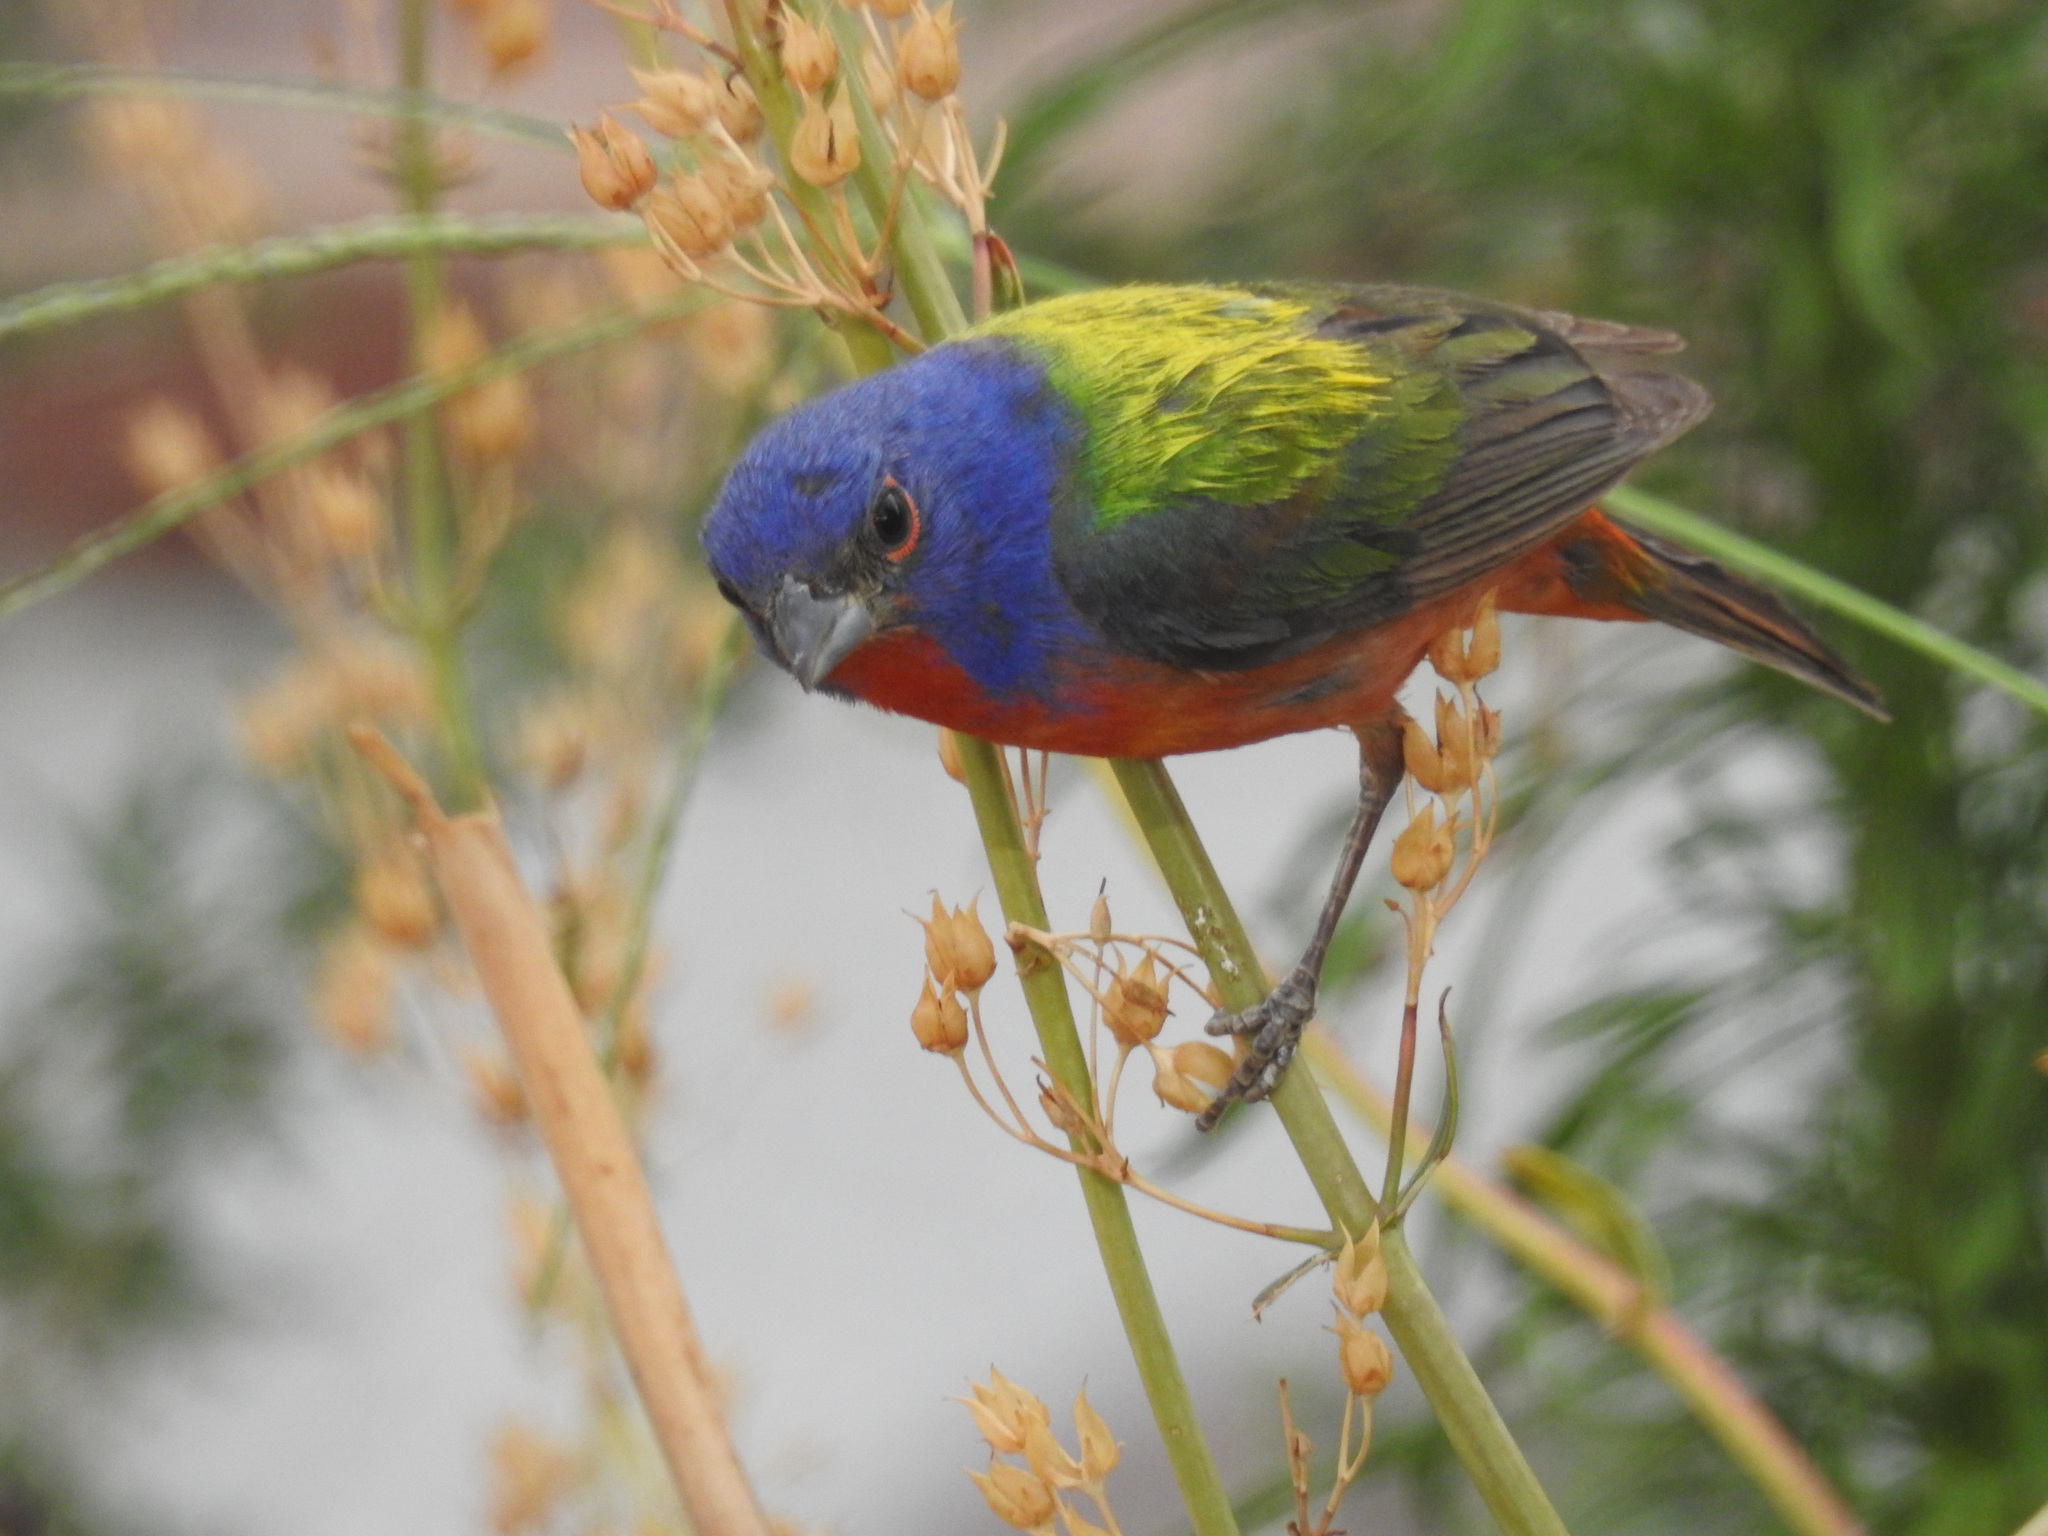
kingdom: Animalia
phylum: Chordata
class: Aves
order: Passeriformes
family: Cardinalidae
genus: Passerina
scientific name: Passerina ciris
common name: Painted bunting
